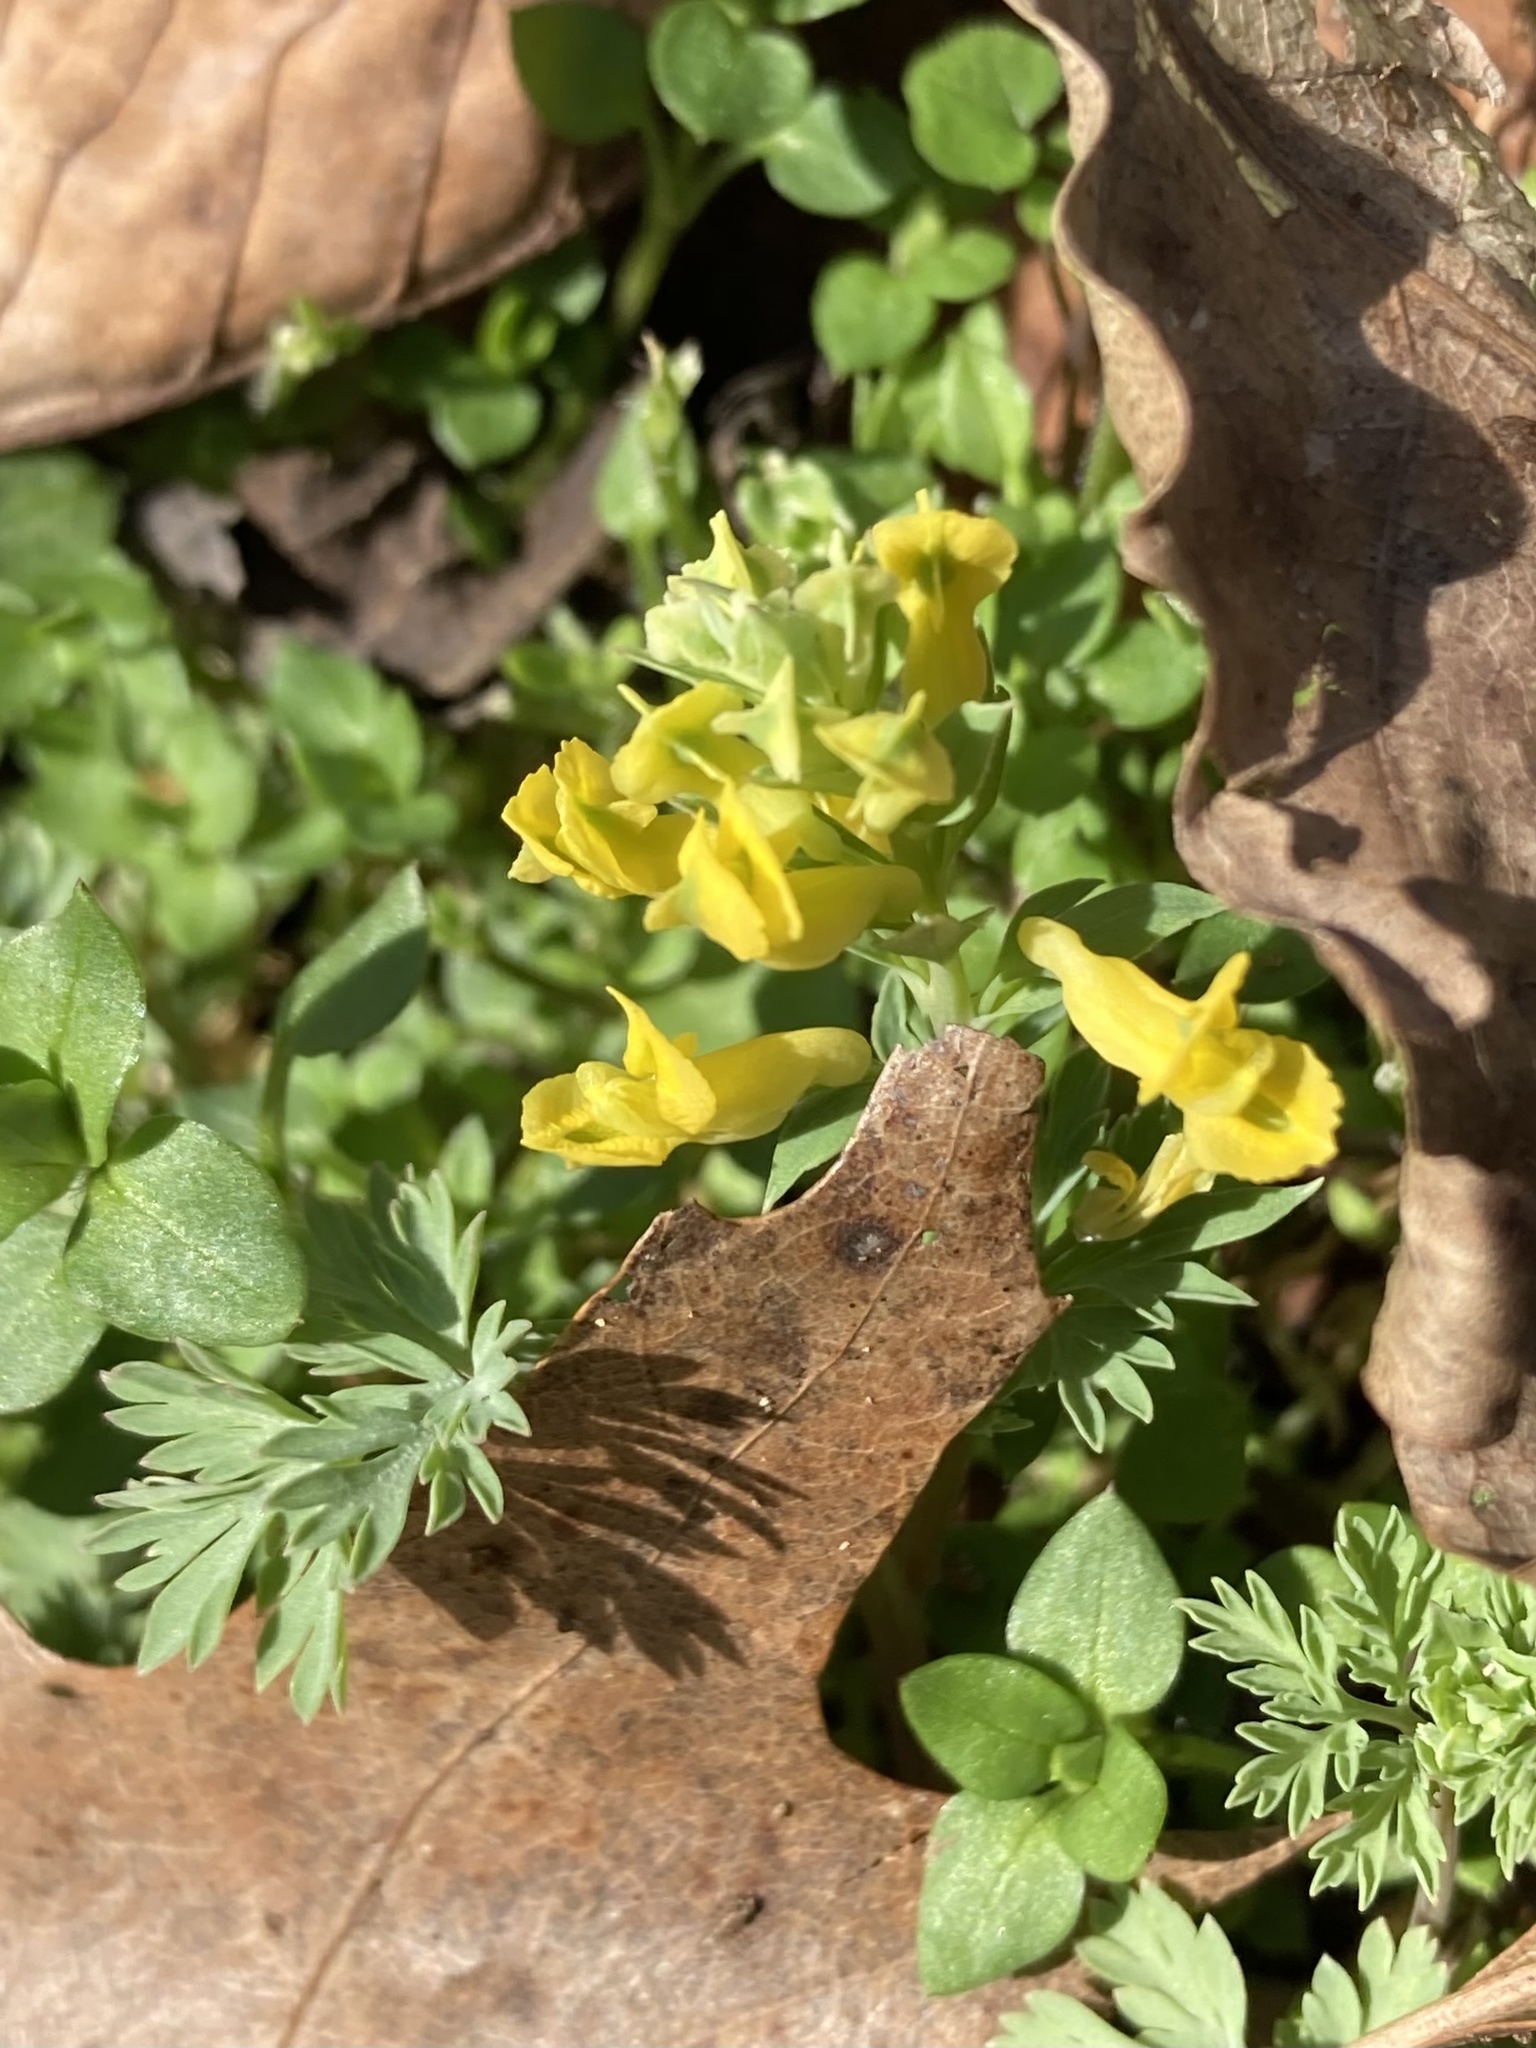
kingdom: Plantae
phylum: Tracheophyta
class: Magnoliopsida
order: Ranunculales
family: Papaveraceae
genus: Corydalis
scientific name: Corydalis flavula
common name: Yellow corydalis
